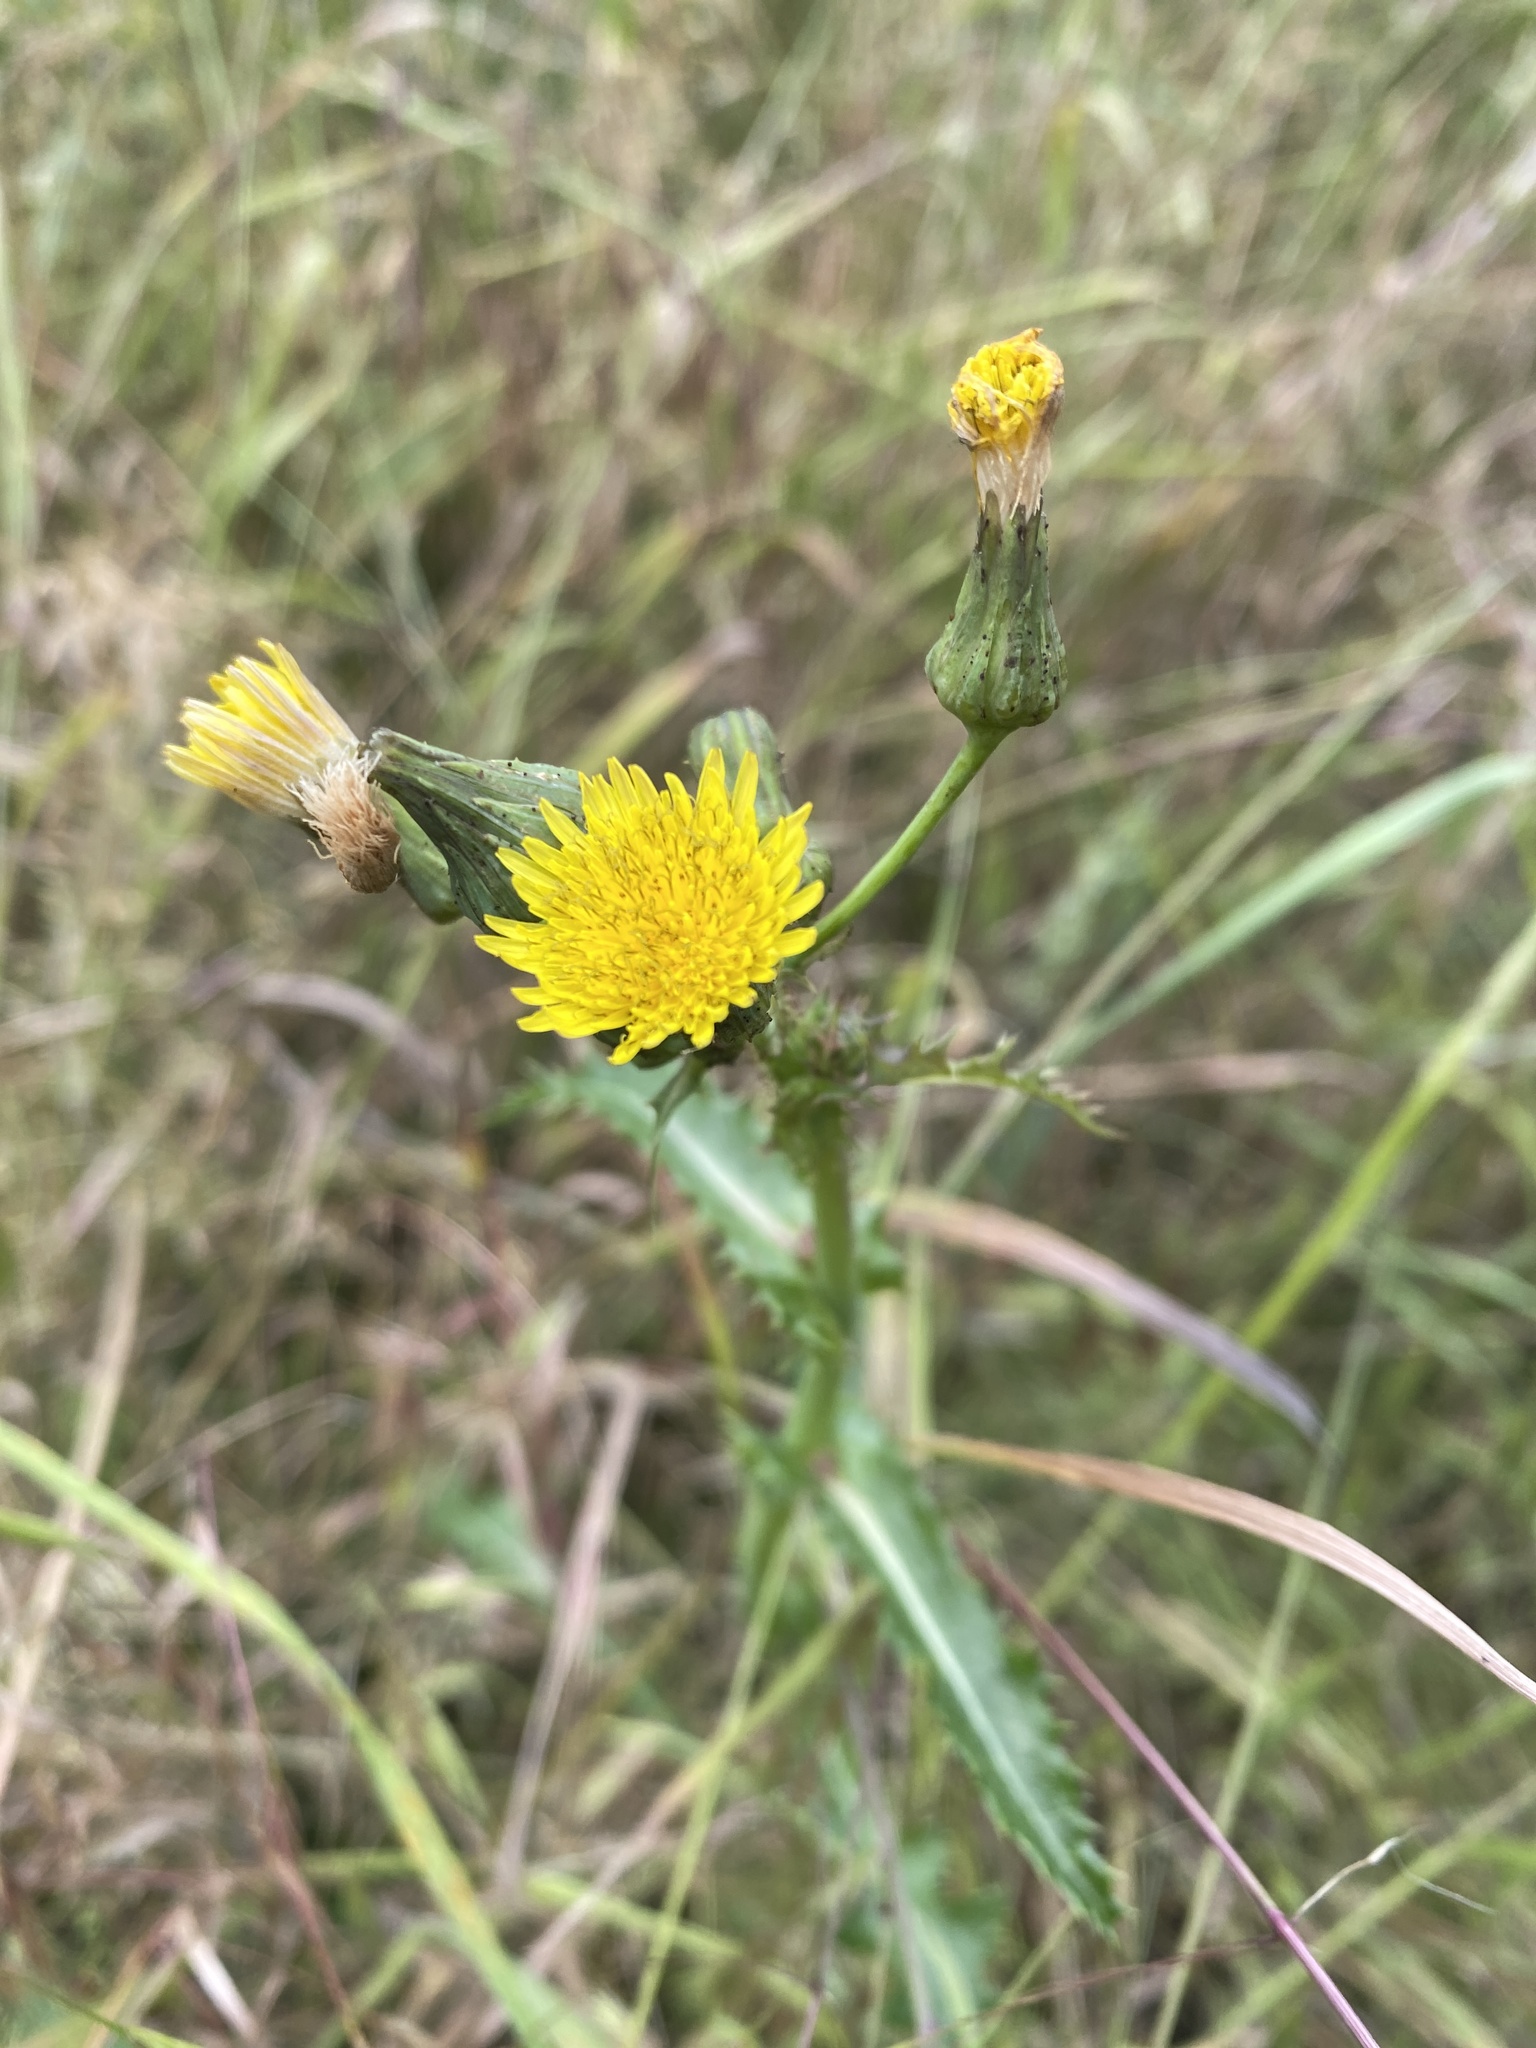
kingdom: Plantae
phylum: Tracheophyta
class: Magnoliopsida
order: Asterales
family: Asteraceae
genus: Sonchus
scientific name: Sonchus asper
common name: Prickly sow-thistle
